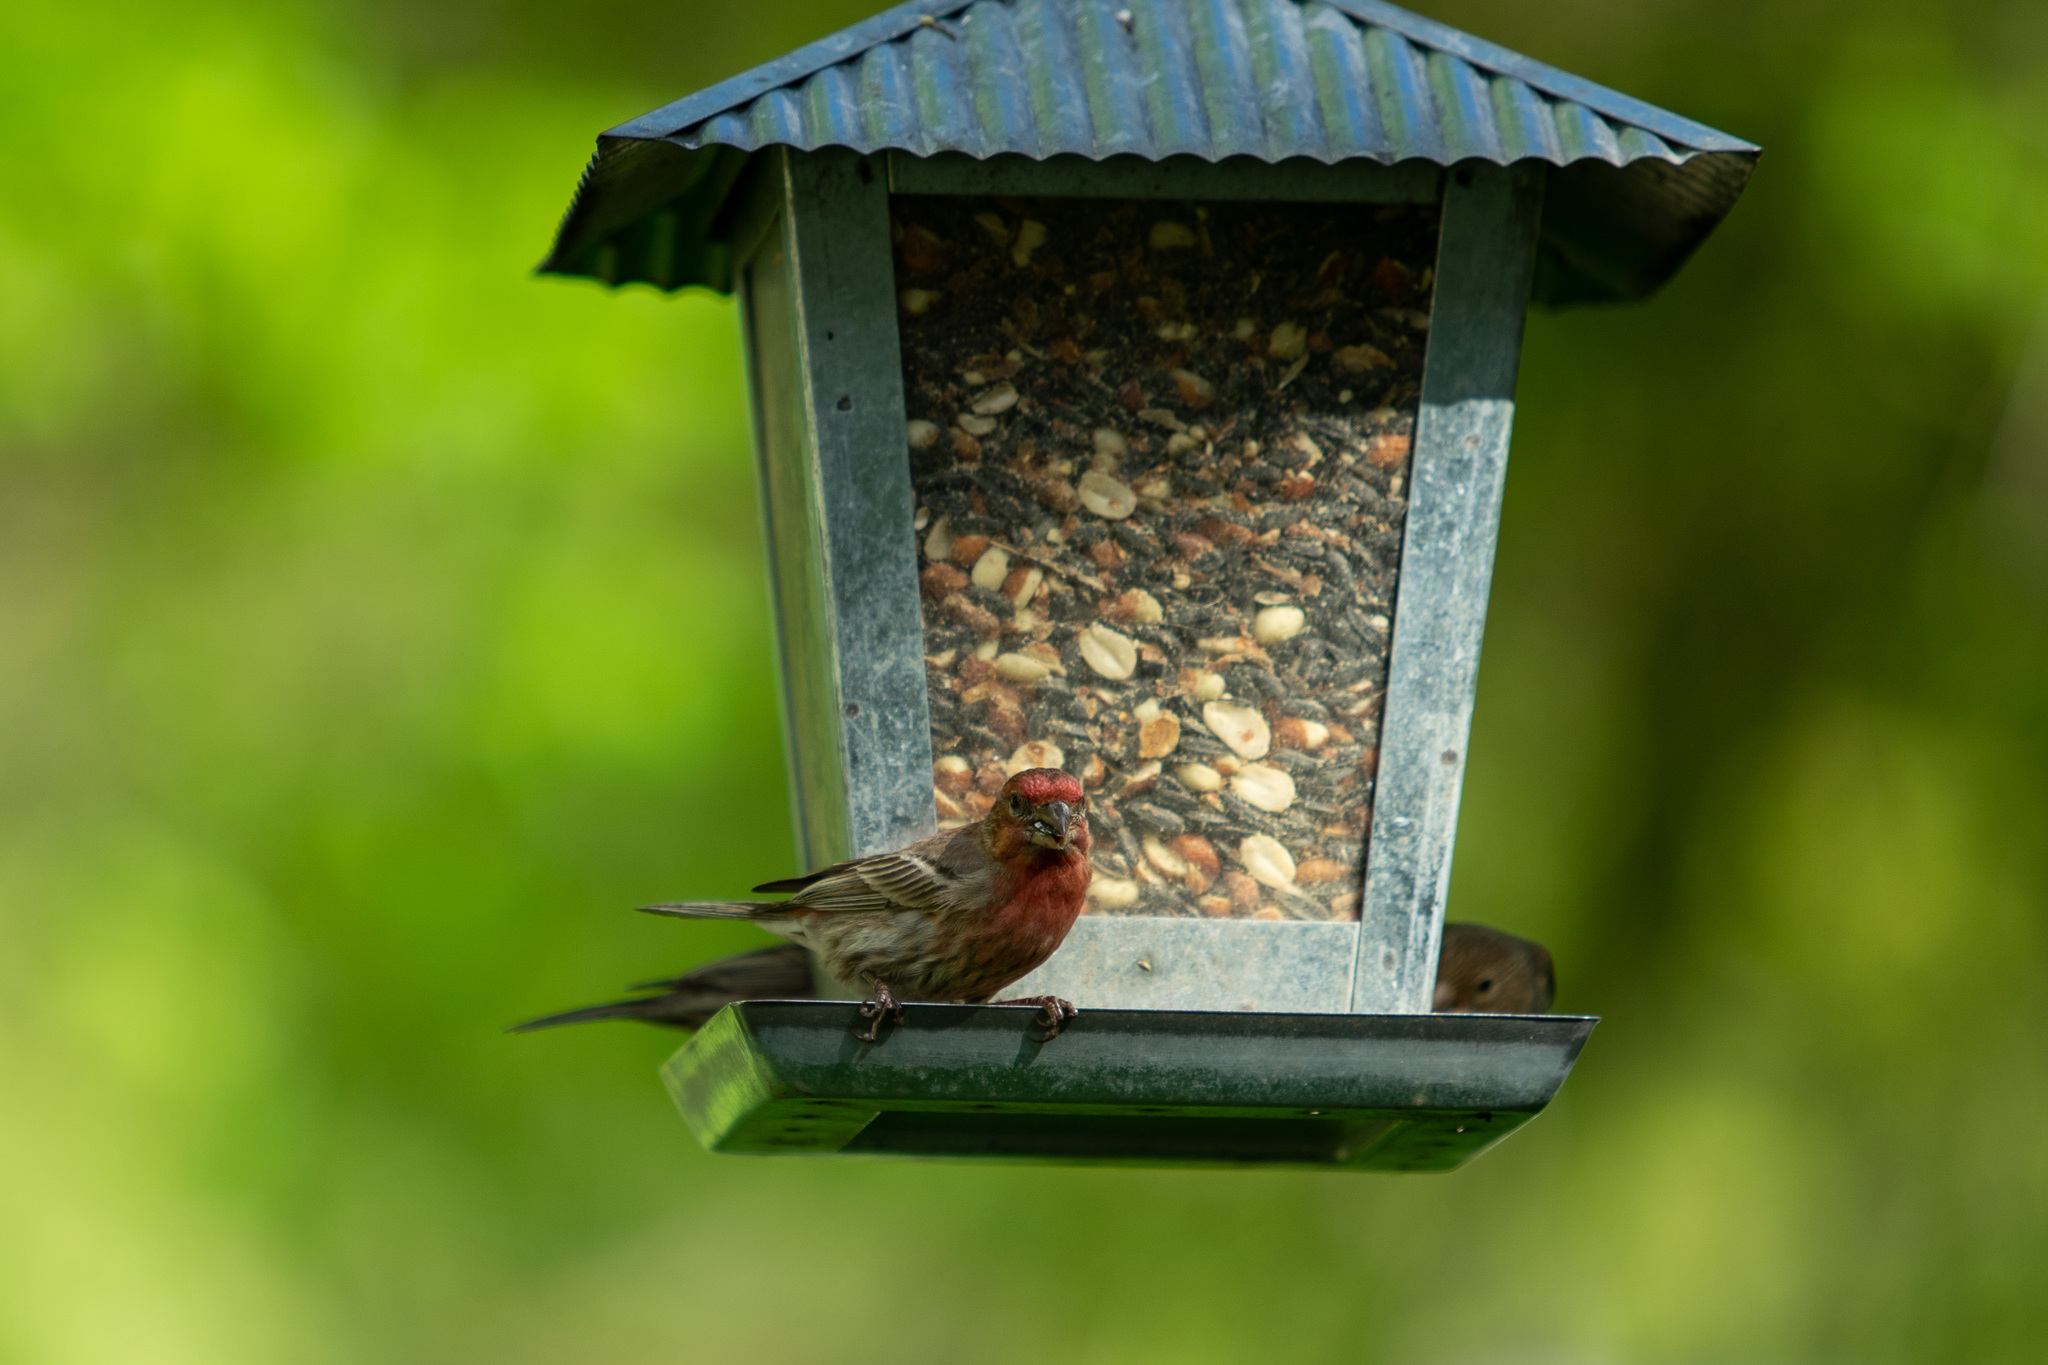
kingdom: Animalia
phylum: Chordata
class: Aves
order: Passeriformes
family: Fringillidae
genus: Haemorhous
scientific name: Haemorhous mexicanus
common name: House finch
